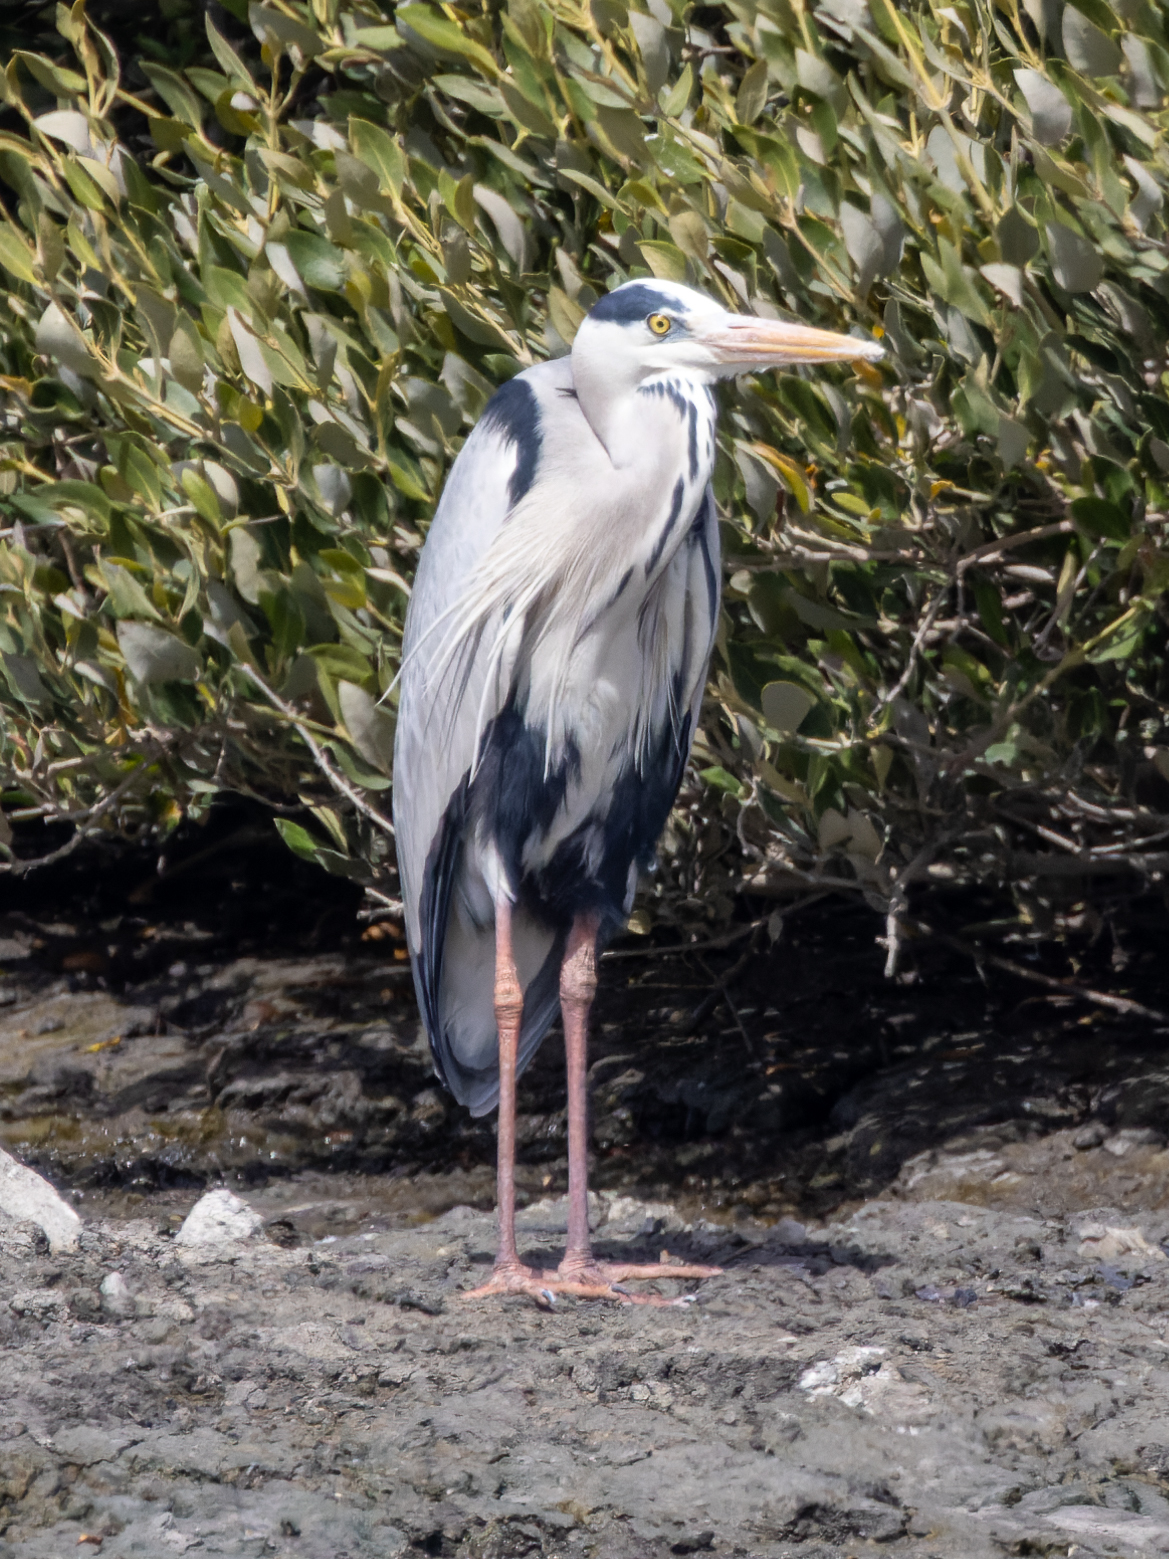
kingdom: Animalia
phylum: Chordata
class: Aves
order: Pelecaniformes
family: Ardeidae
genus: Ardea
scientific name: Ardea cinerea
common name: Grey heron
